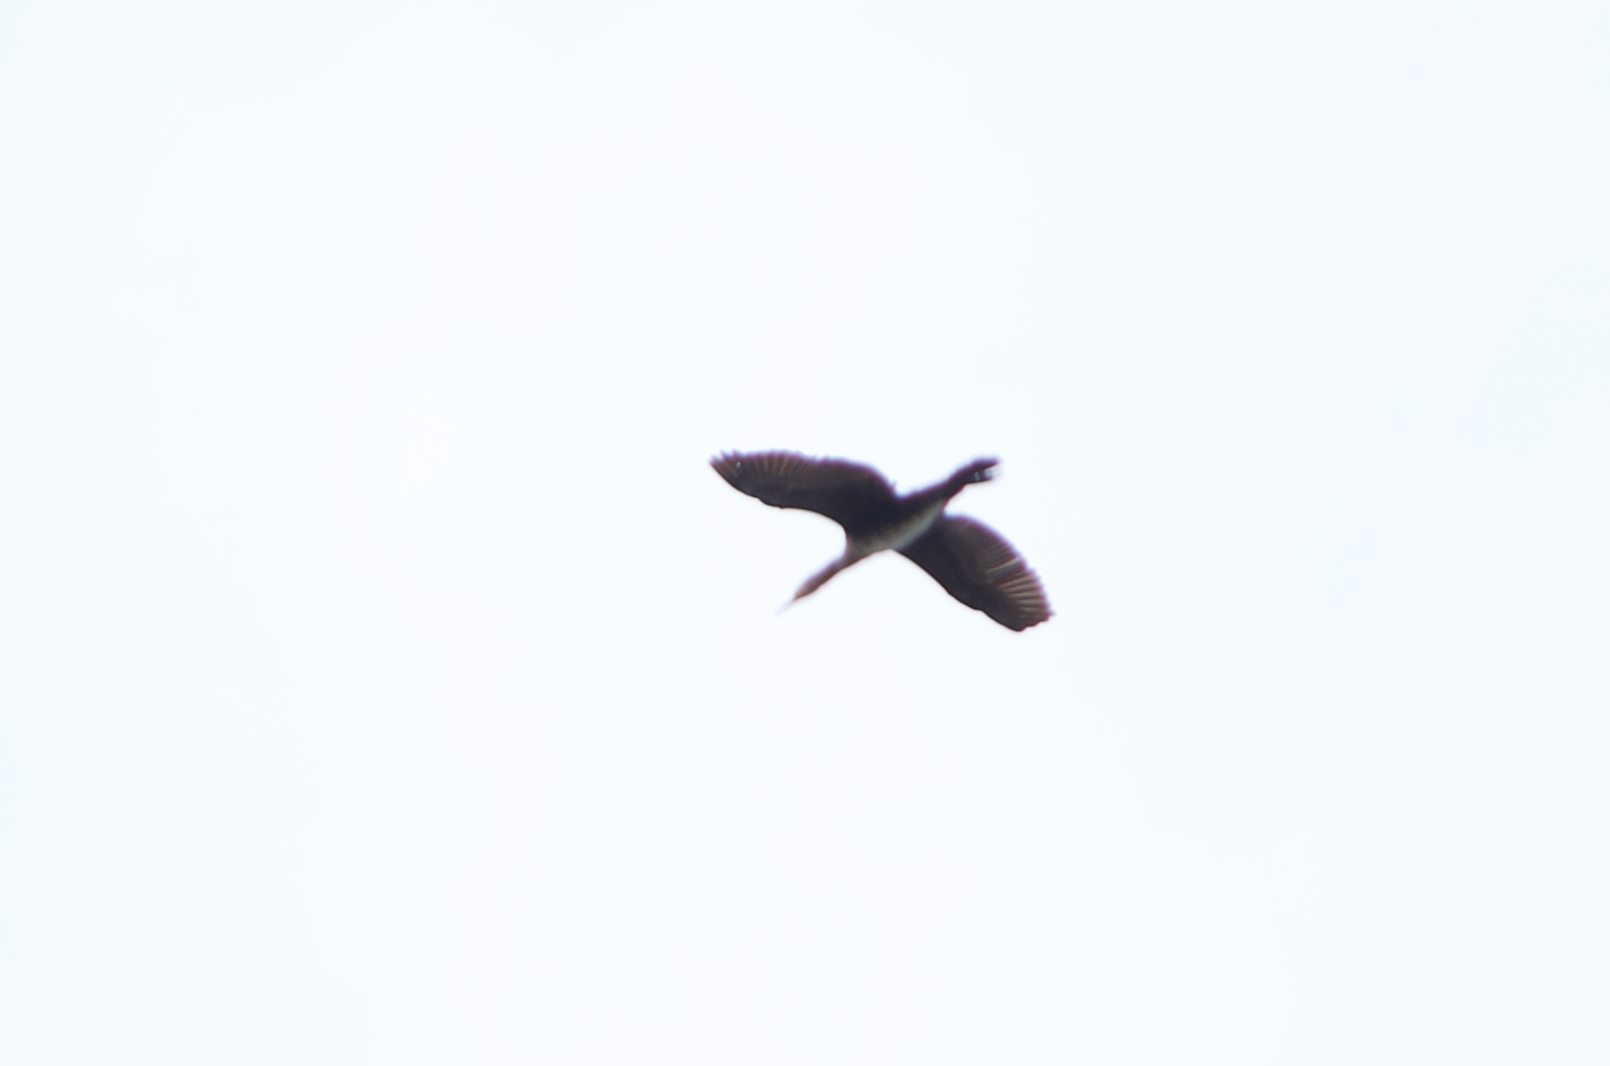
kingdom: Animalia
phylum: Chordata
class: Aves
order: Suliformes
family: Phalacrocoracidae
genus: Phalacrocorax
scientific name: Phalacrocorax carbo
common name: Great cormorant
